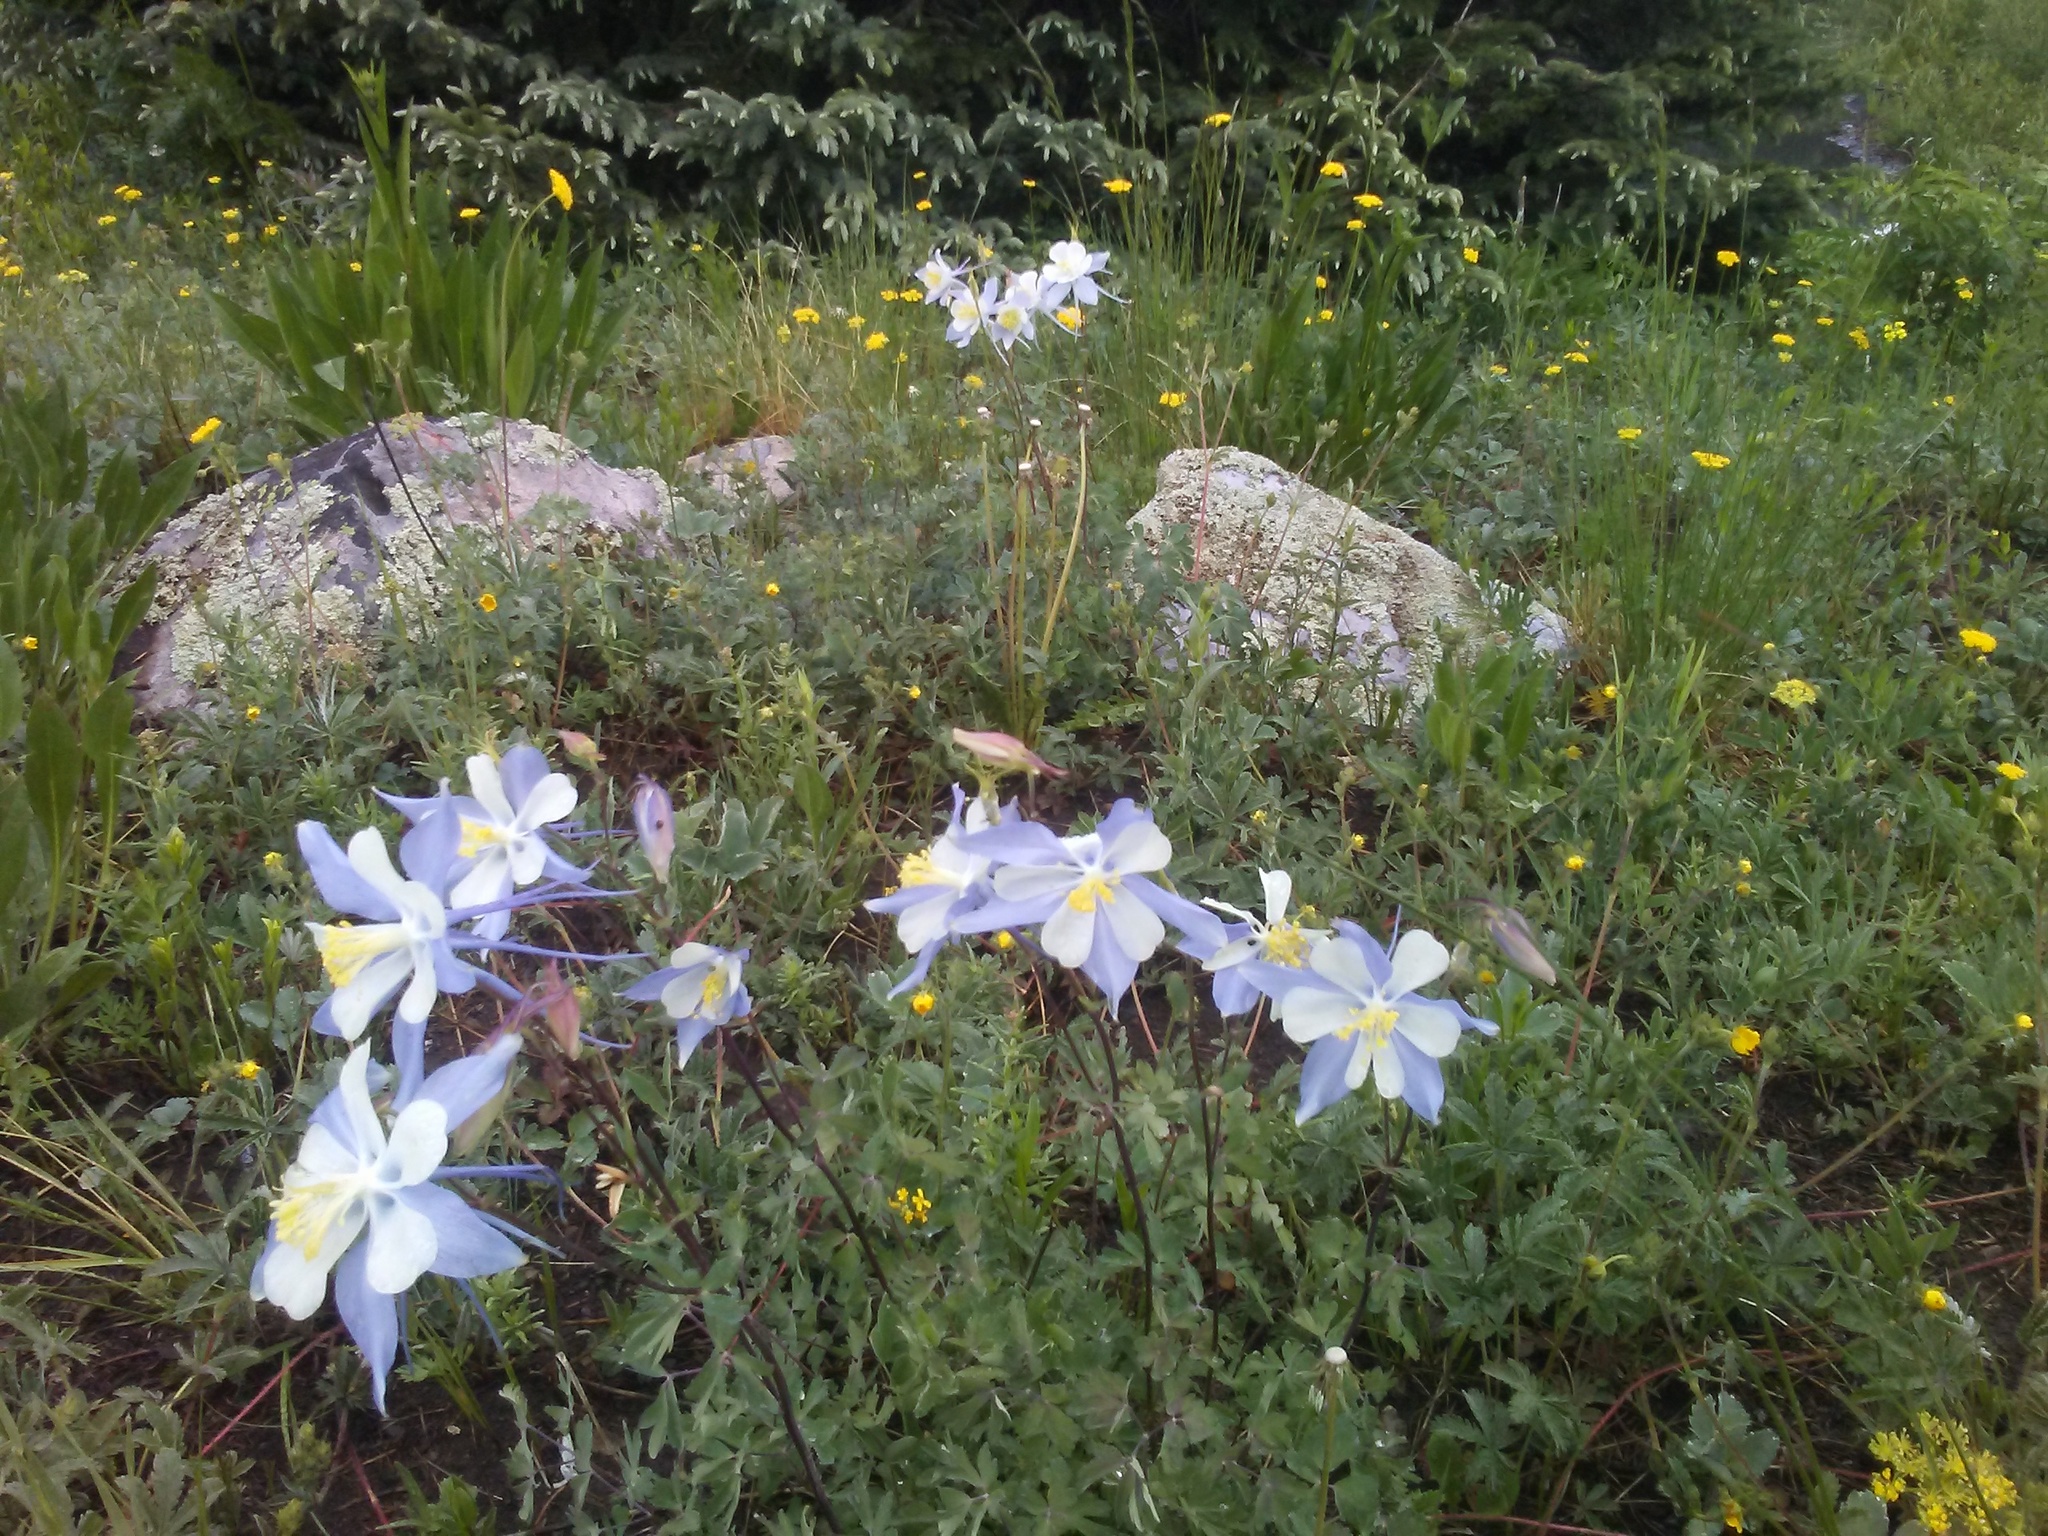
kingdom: Plantae
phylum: Tracheophyta
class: Magnoliopsida
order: Ranunculales
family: Ranunculaceae
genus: Aquilegia
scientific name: Aquilegia coerulea
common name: Rocky mountain columbine
